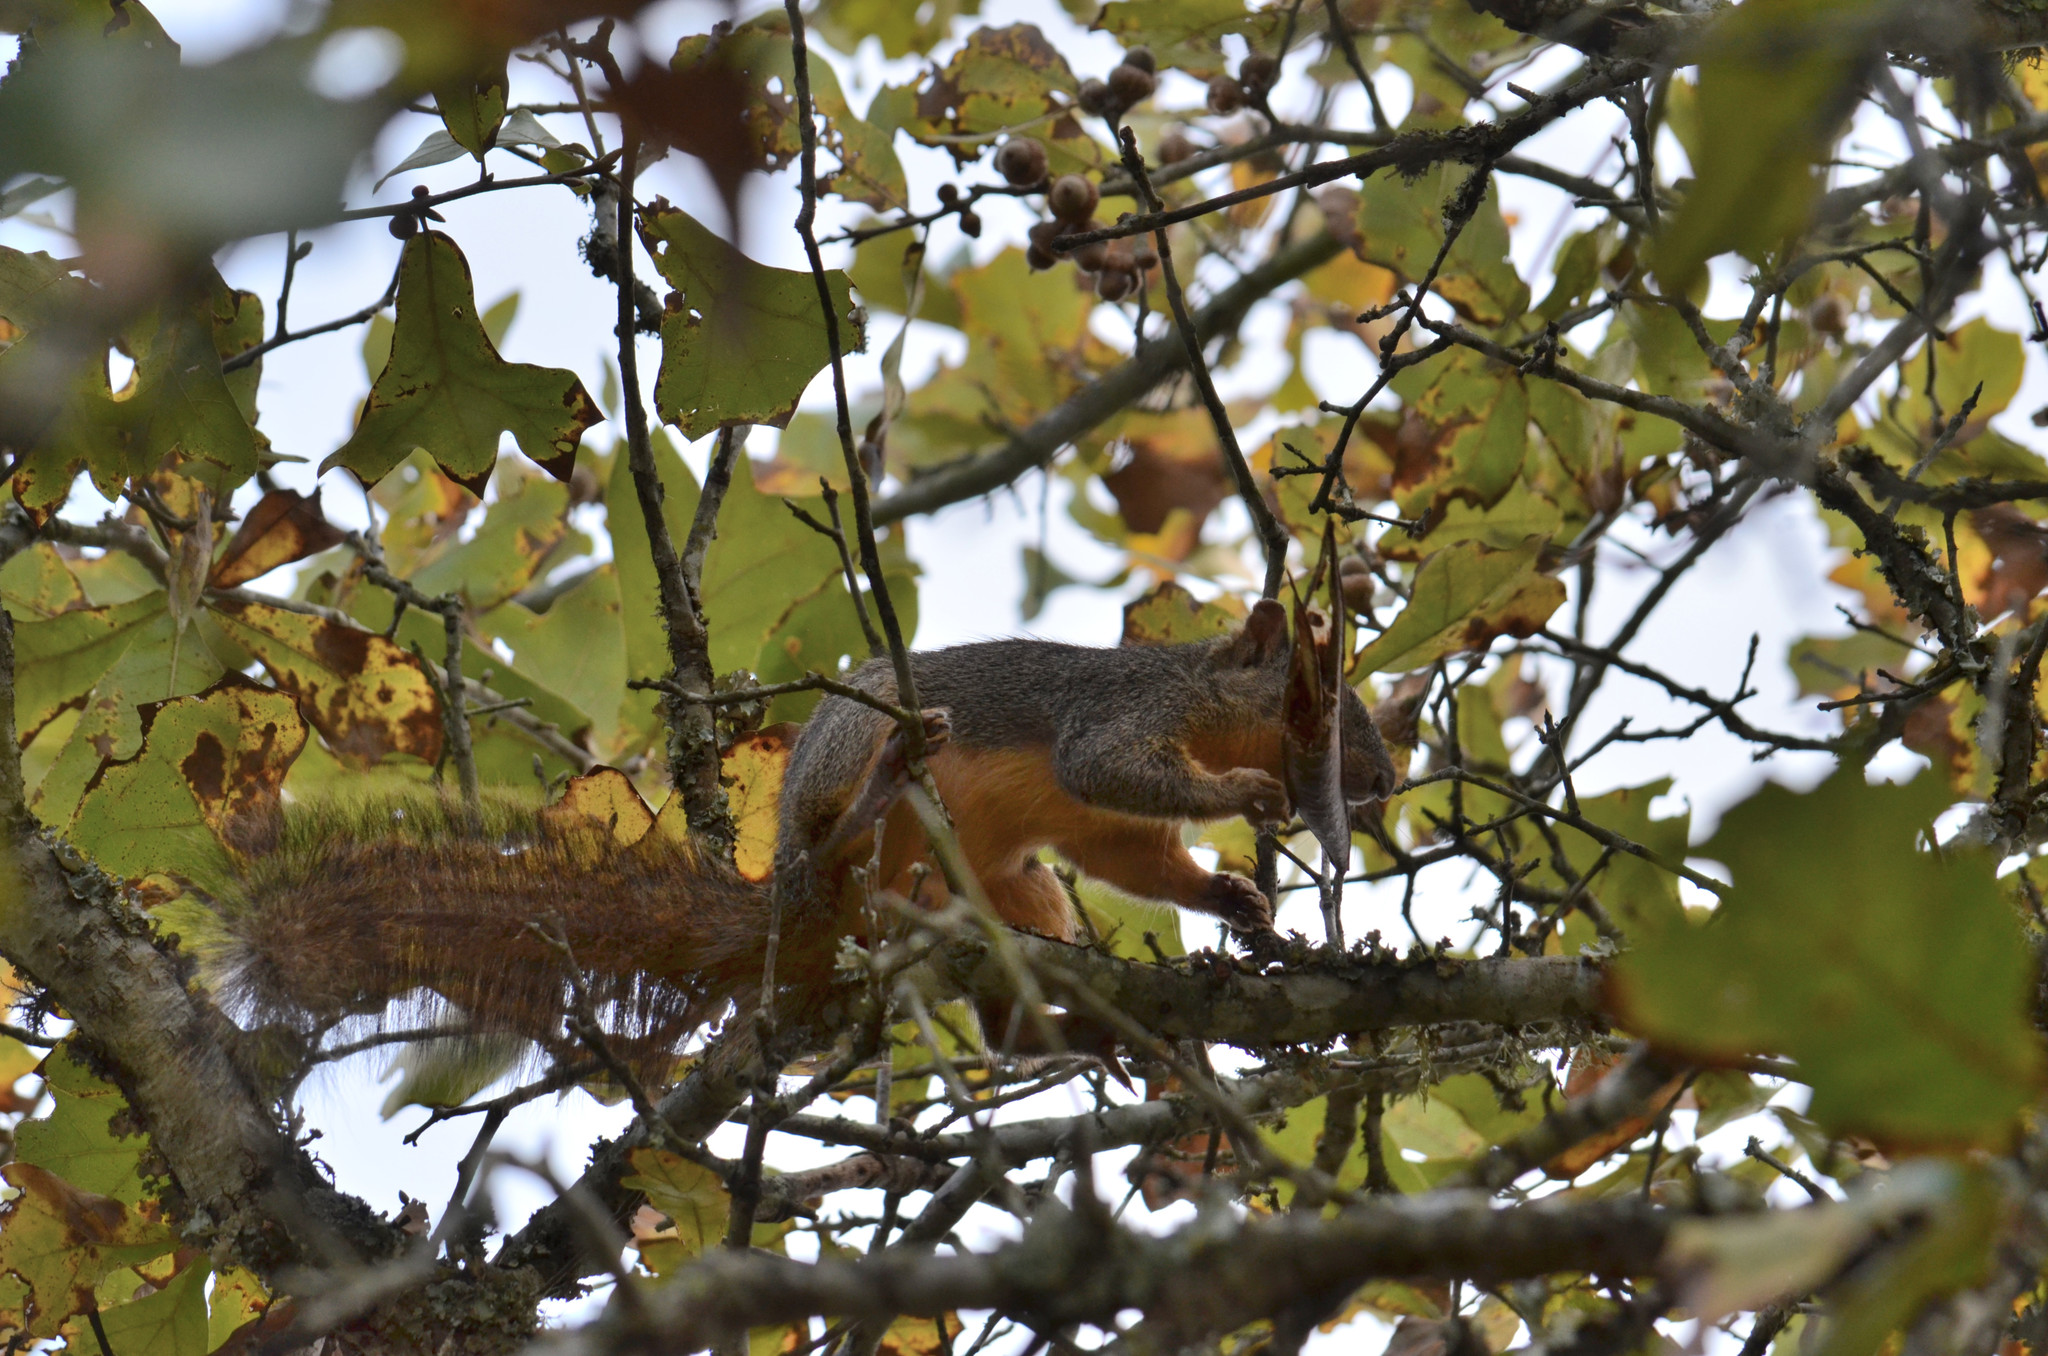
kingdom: Animalia
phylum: Chordata
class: Mammalia
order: Rodentia
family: Sciuridae
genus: Sciurus
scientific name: Sciurus niger
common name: Fox squirrel
